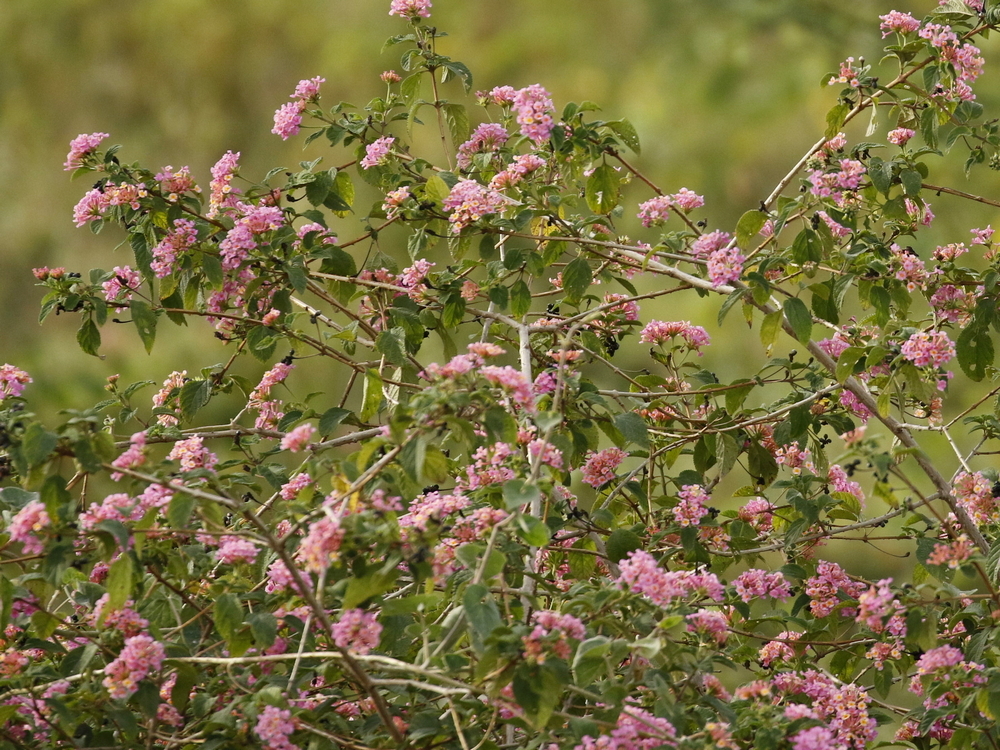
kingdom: Plantae
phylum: Tracheophyta
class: Magnoliopsida
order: Lamiales
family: Verbenaceae
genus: Lantana
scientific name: Lantana camara
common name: Lantana
